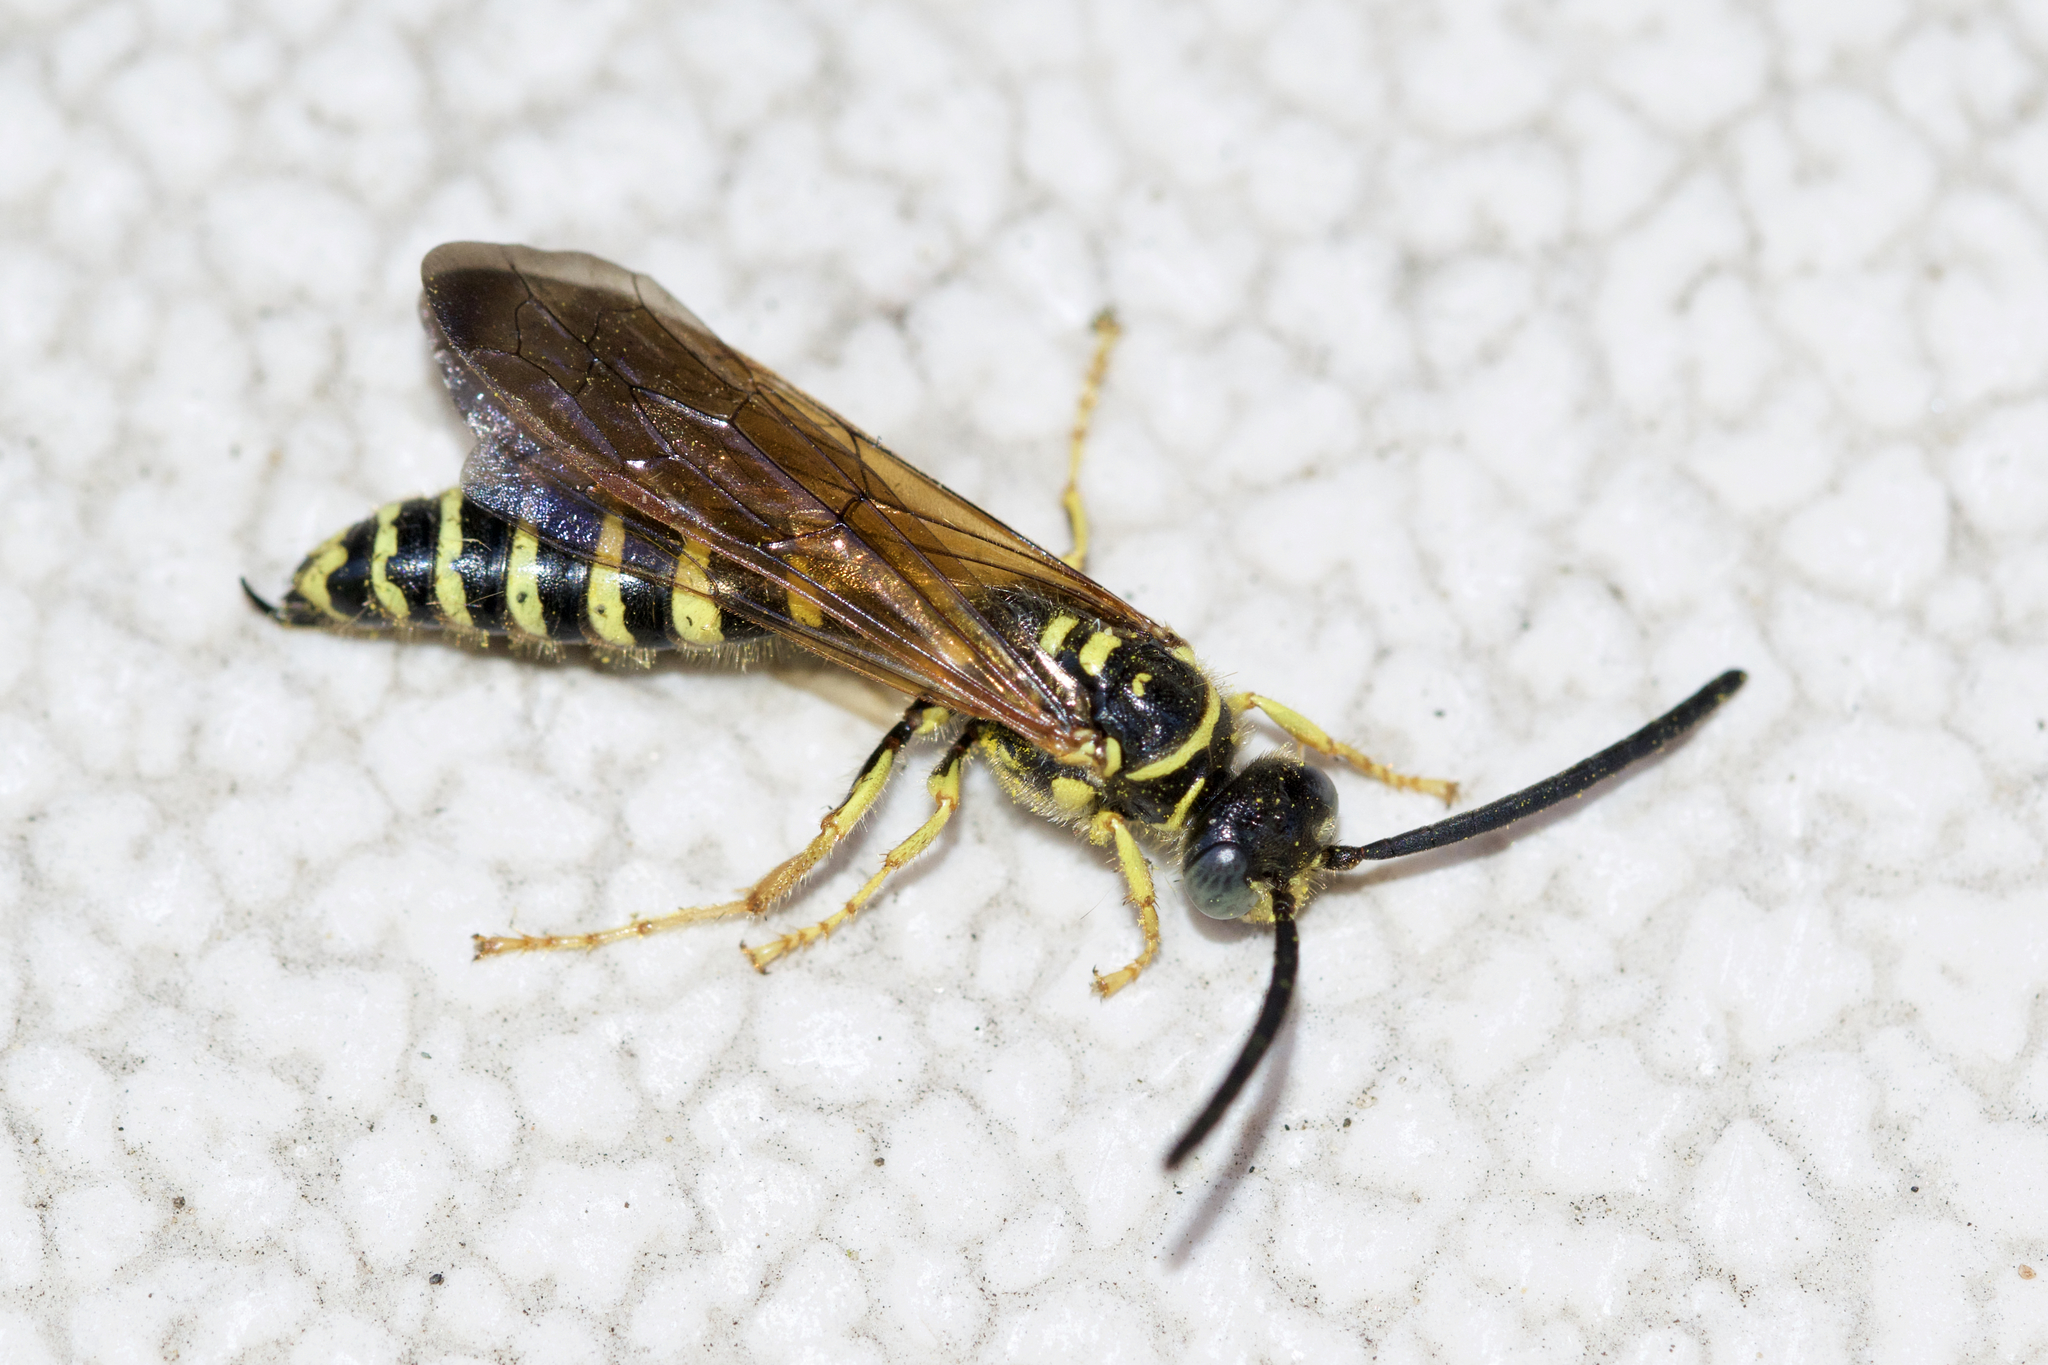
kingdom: Animalia
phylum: Arthropoda
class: Insecta
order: Hymenoptera
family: Tiphiidae
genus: Myzinum
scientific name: Myzinum quinquecinctum
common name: Five-banded thynnid wasp
